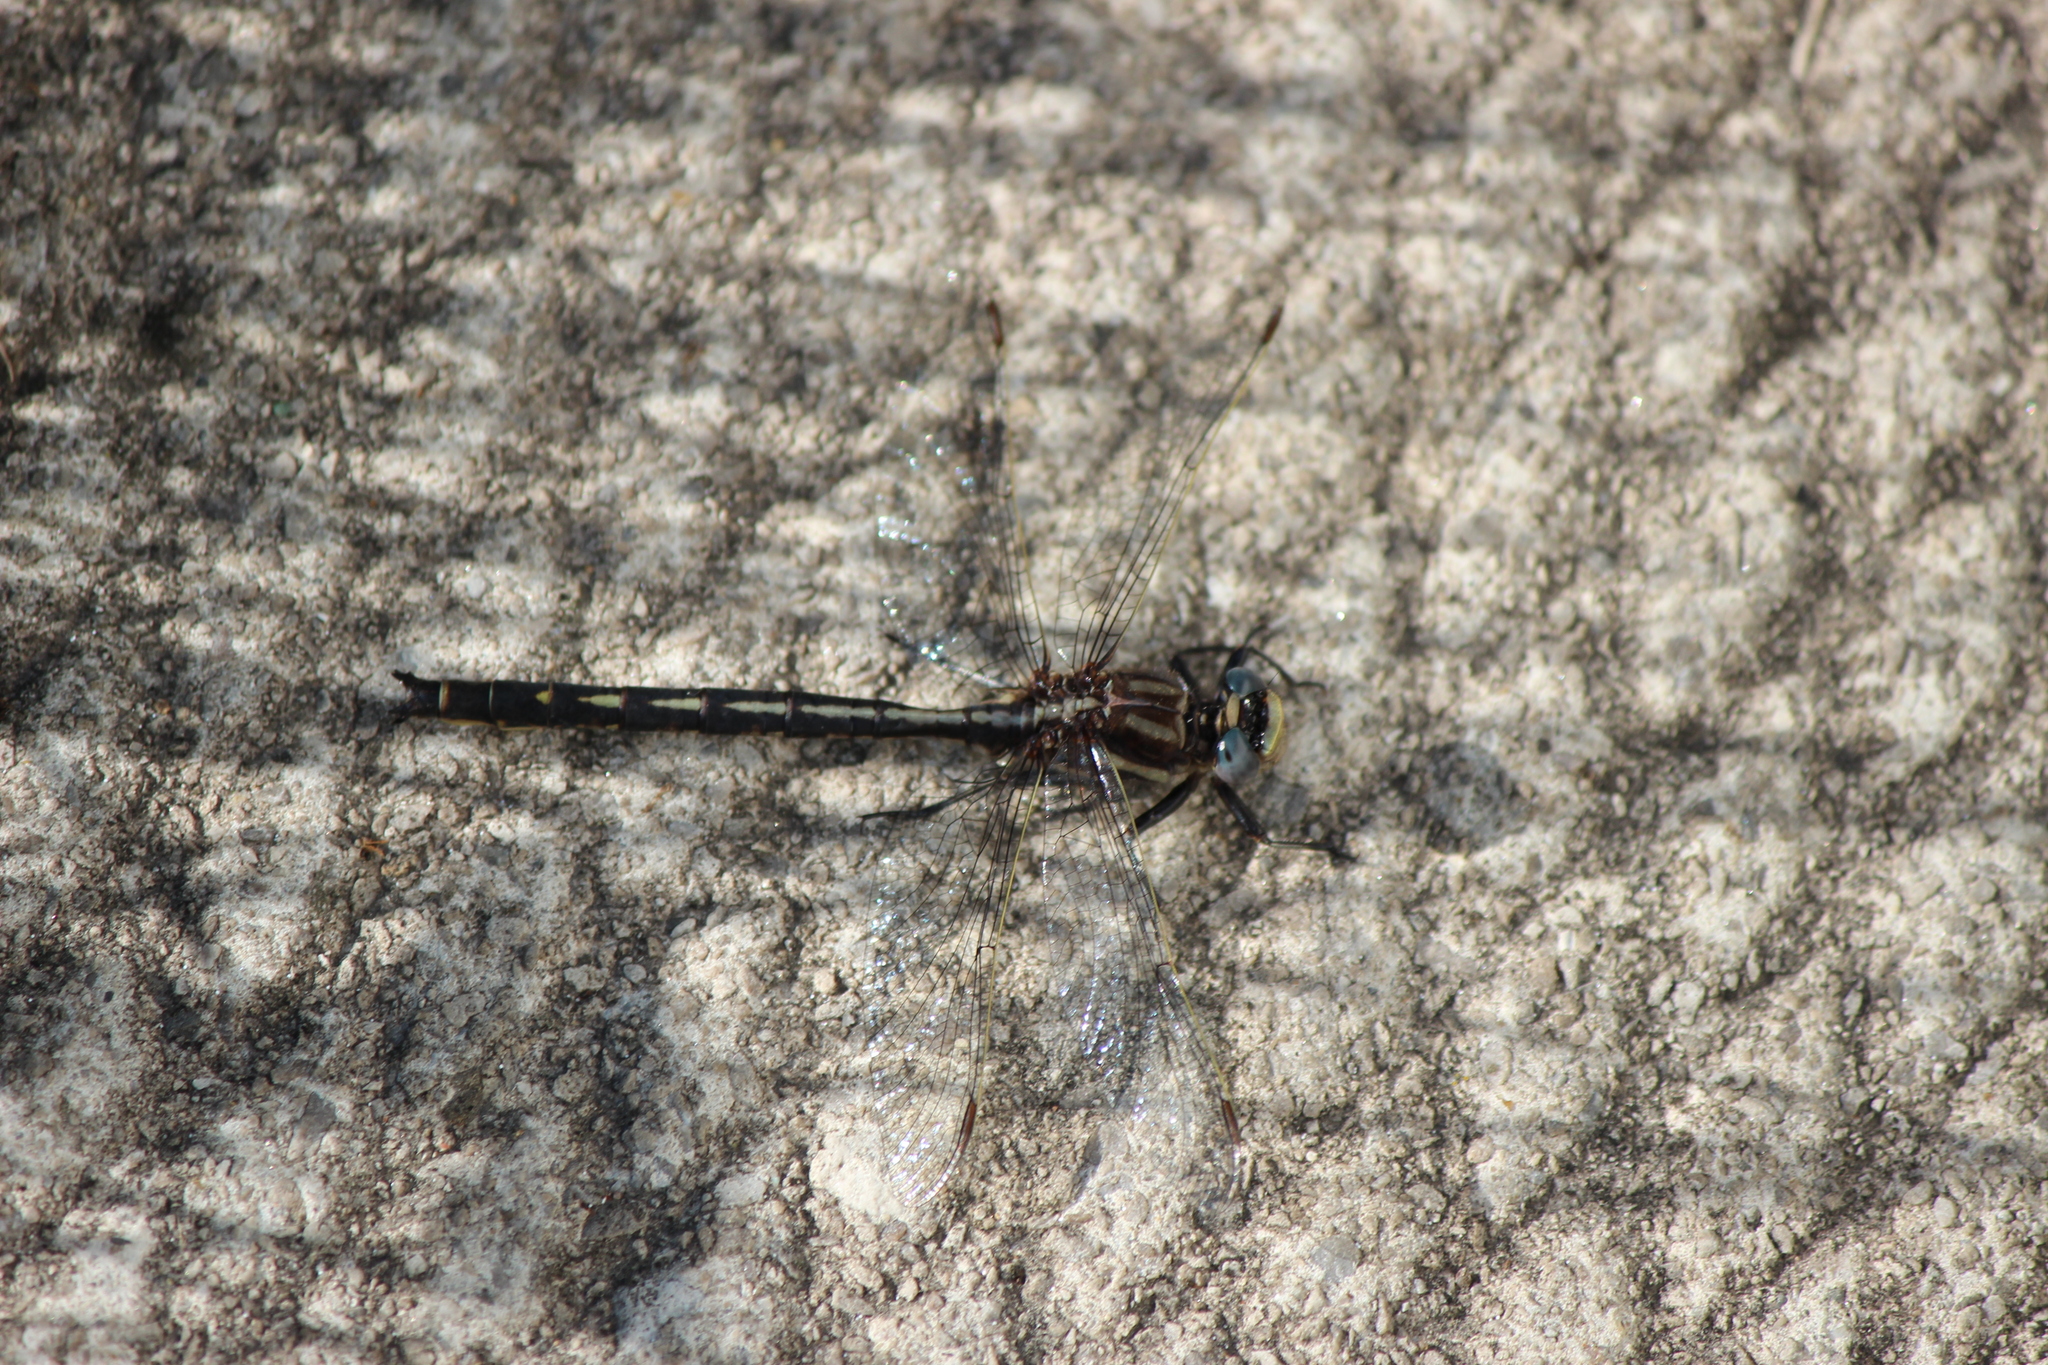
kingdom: Plantae
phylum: Tracheophyta
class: Magnoliopsida
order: Fabales
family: Fabaceae
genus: Trifolium
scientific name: Trifolium pratense
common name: Red clover
